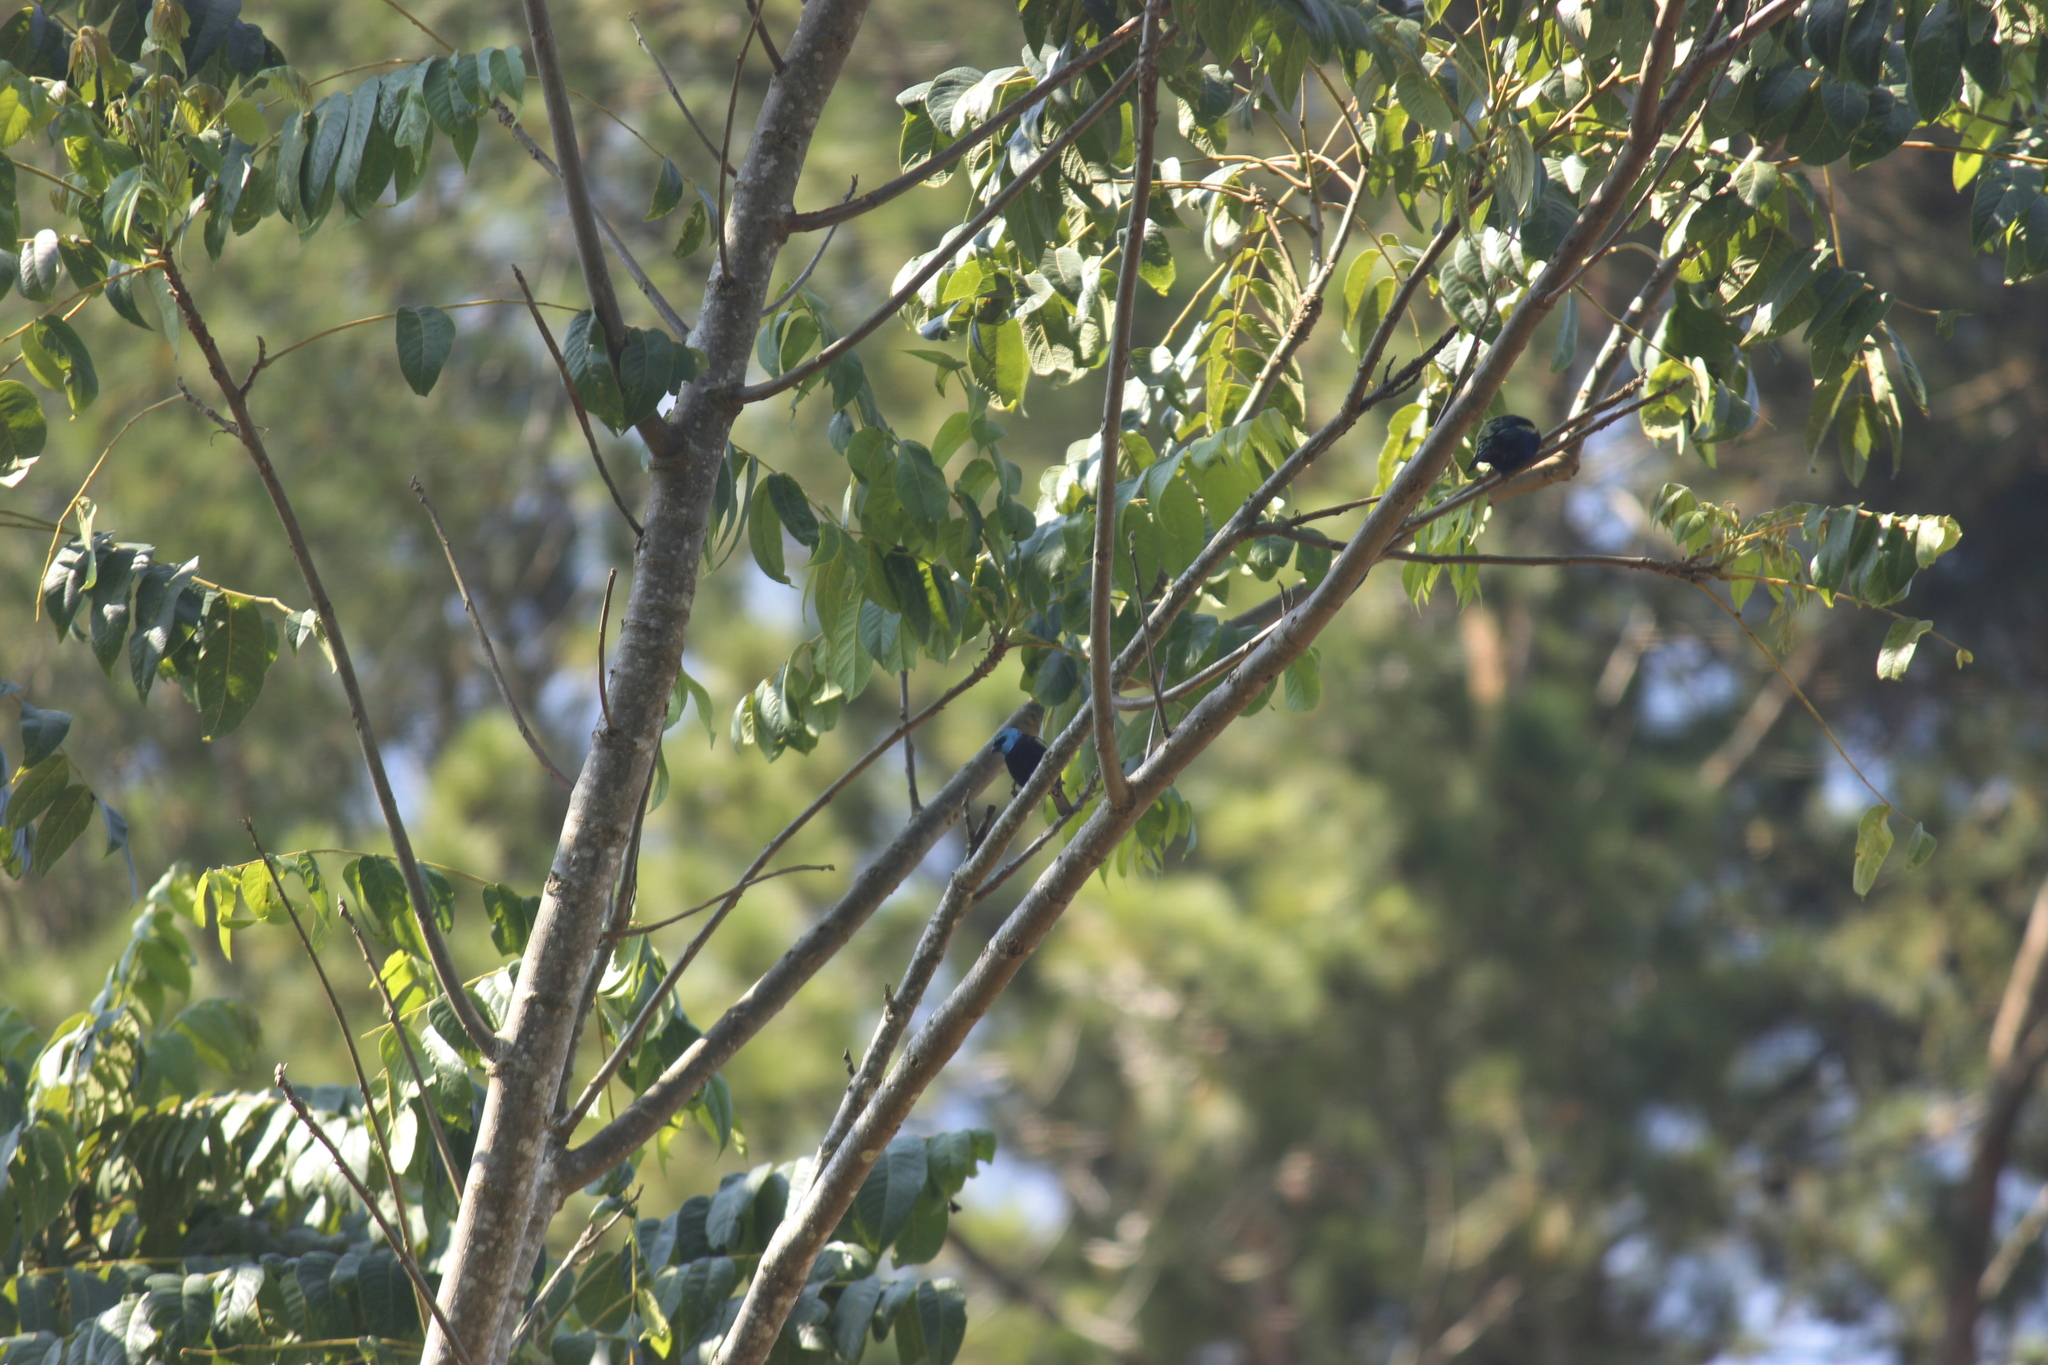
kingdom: Animalia
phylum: Chordata
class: Aves
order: Passeriformes
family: Thraupidae
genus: Stilpnia
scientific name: Stilpnia cyanicollis
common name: Blue-necked tanager
